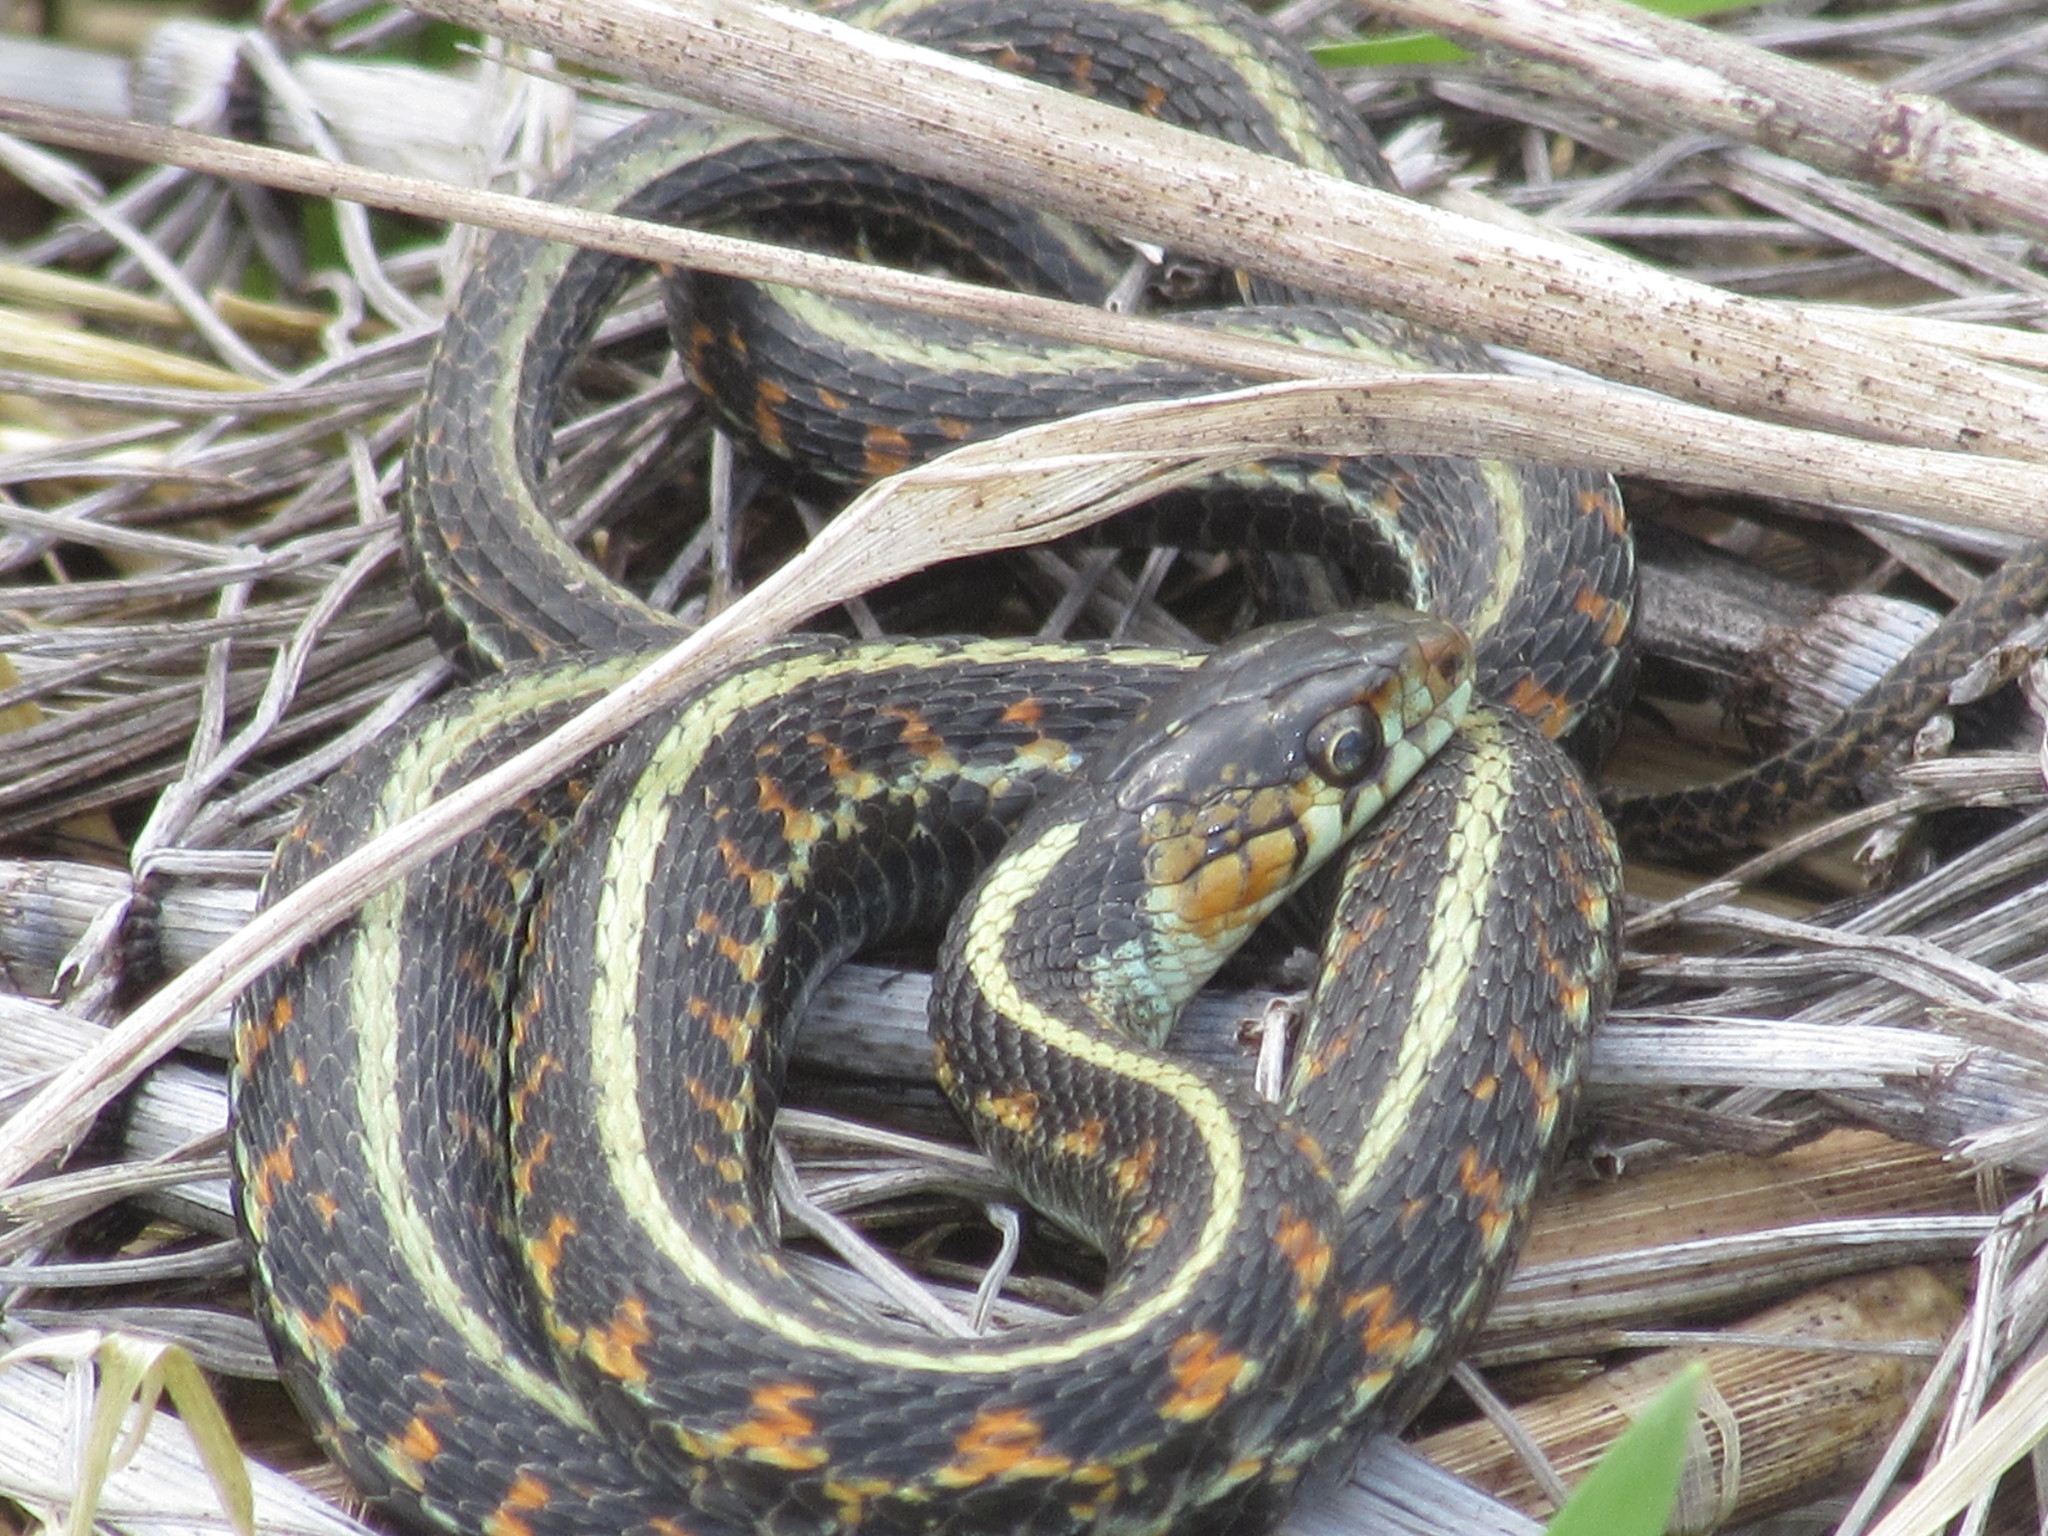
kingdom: Animalia
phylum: Chordata
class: Squamata
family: Colubridae
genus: Thamnophis
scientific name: Thamnophis sirtalis
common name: Common garter snake
